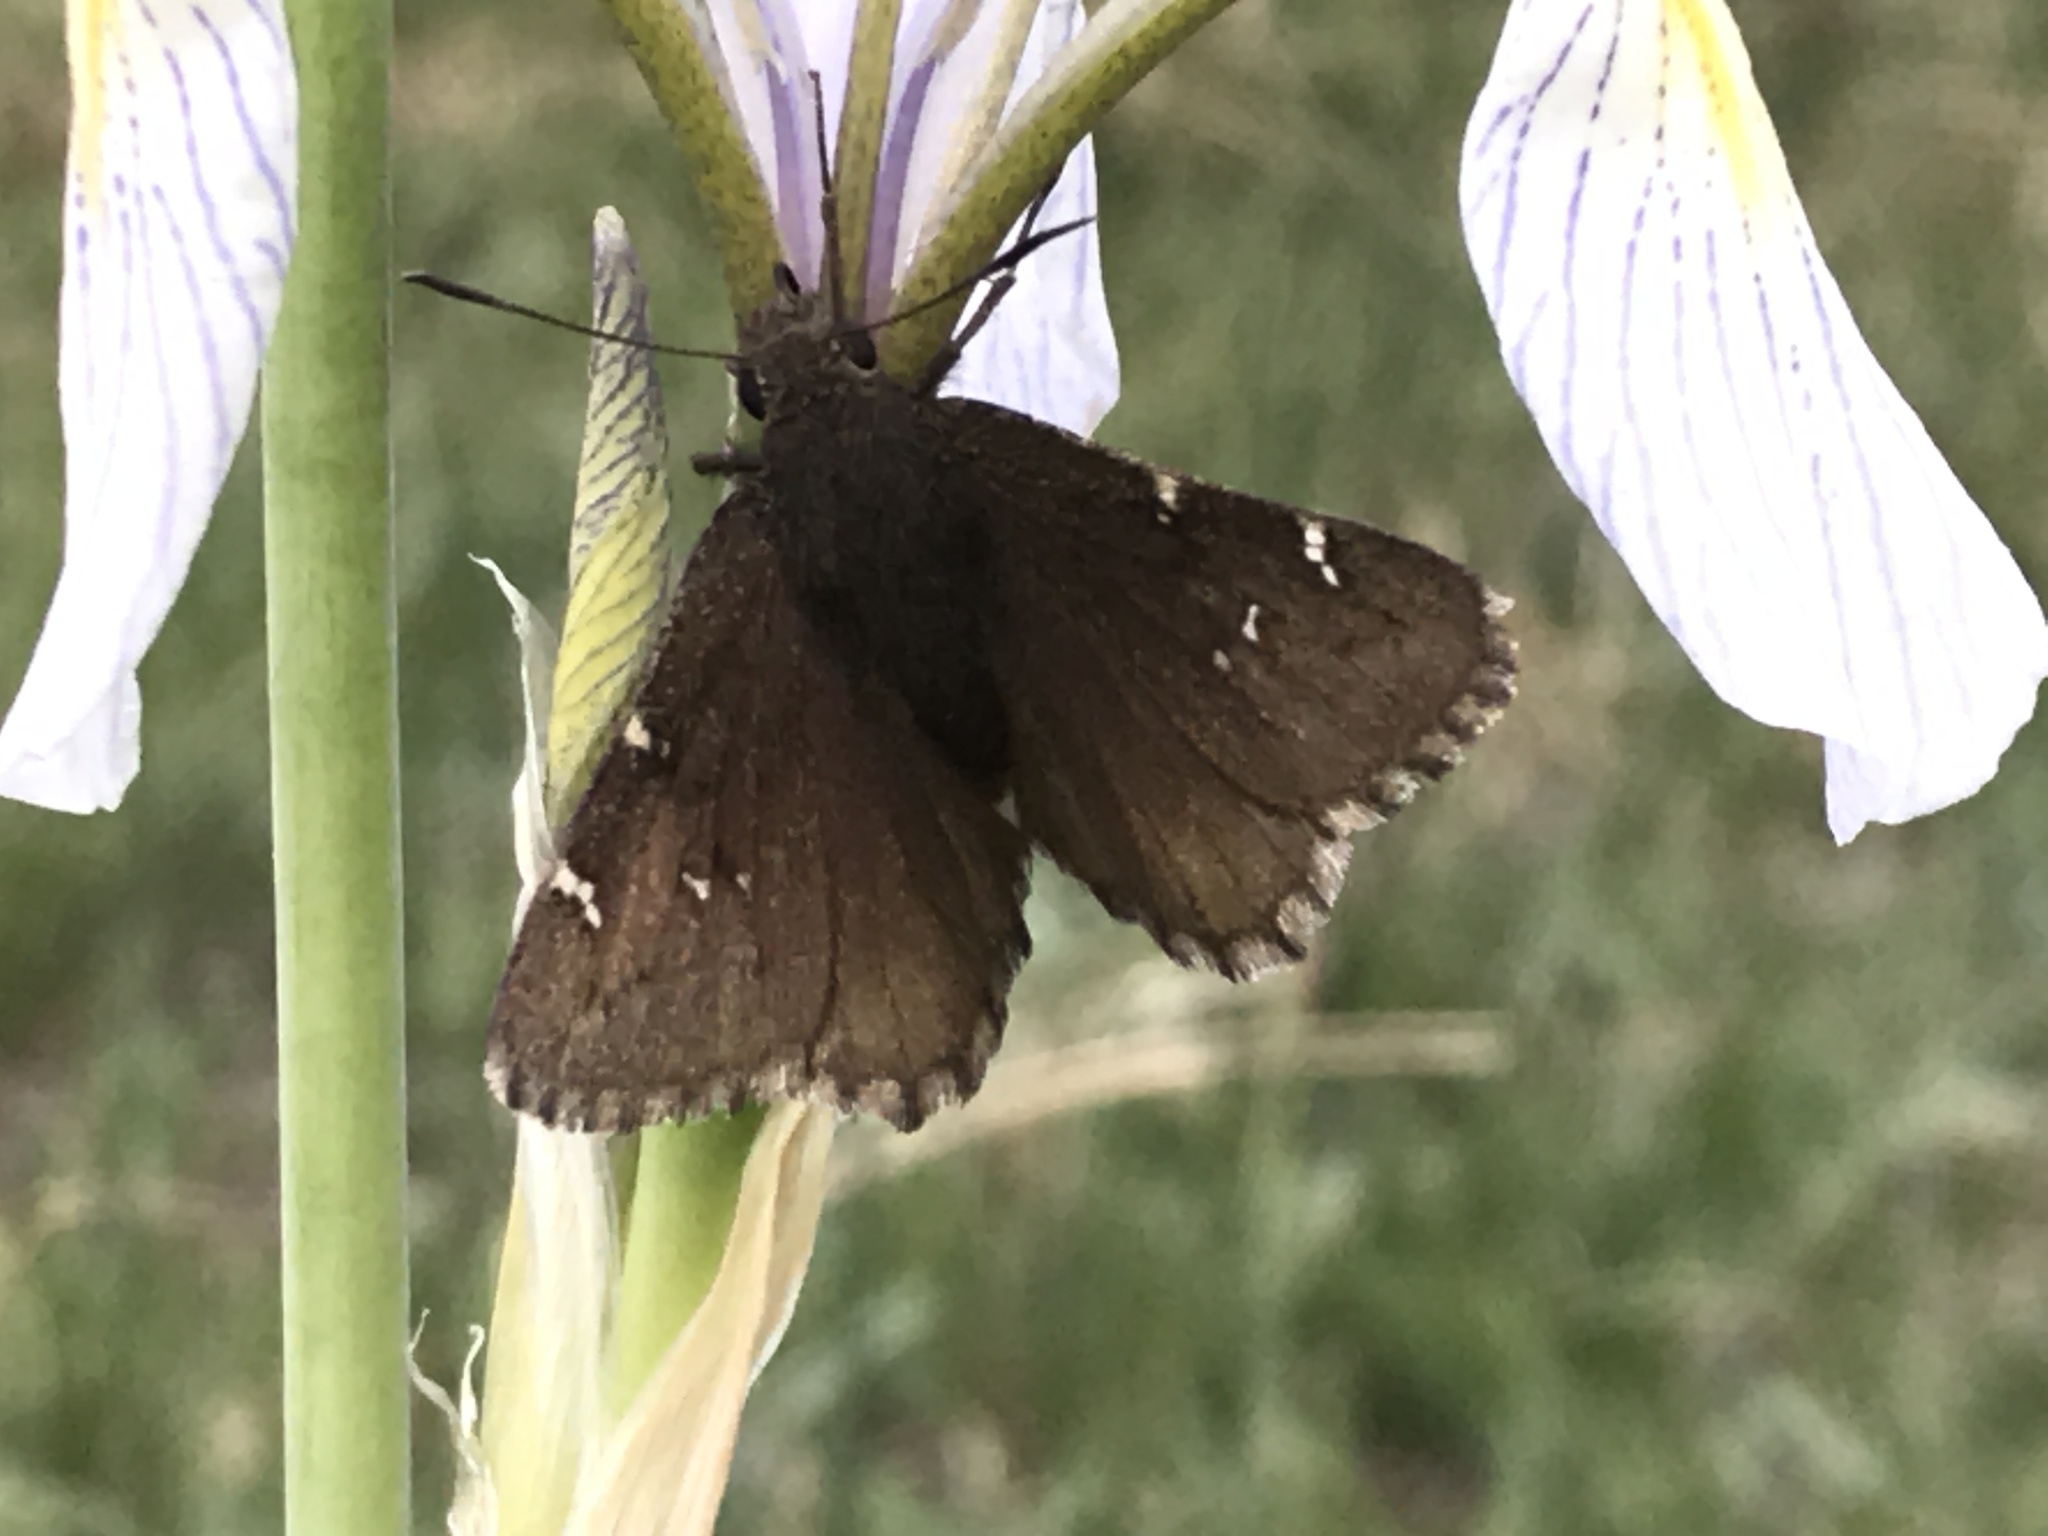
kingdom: Animalia
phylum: Arthropoda
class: Insecta
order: Lepidoptera
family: Hesperiidae
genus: Thorybes
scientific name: Thorybes pylades
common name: Northern cloudywing
